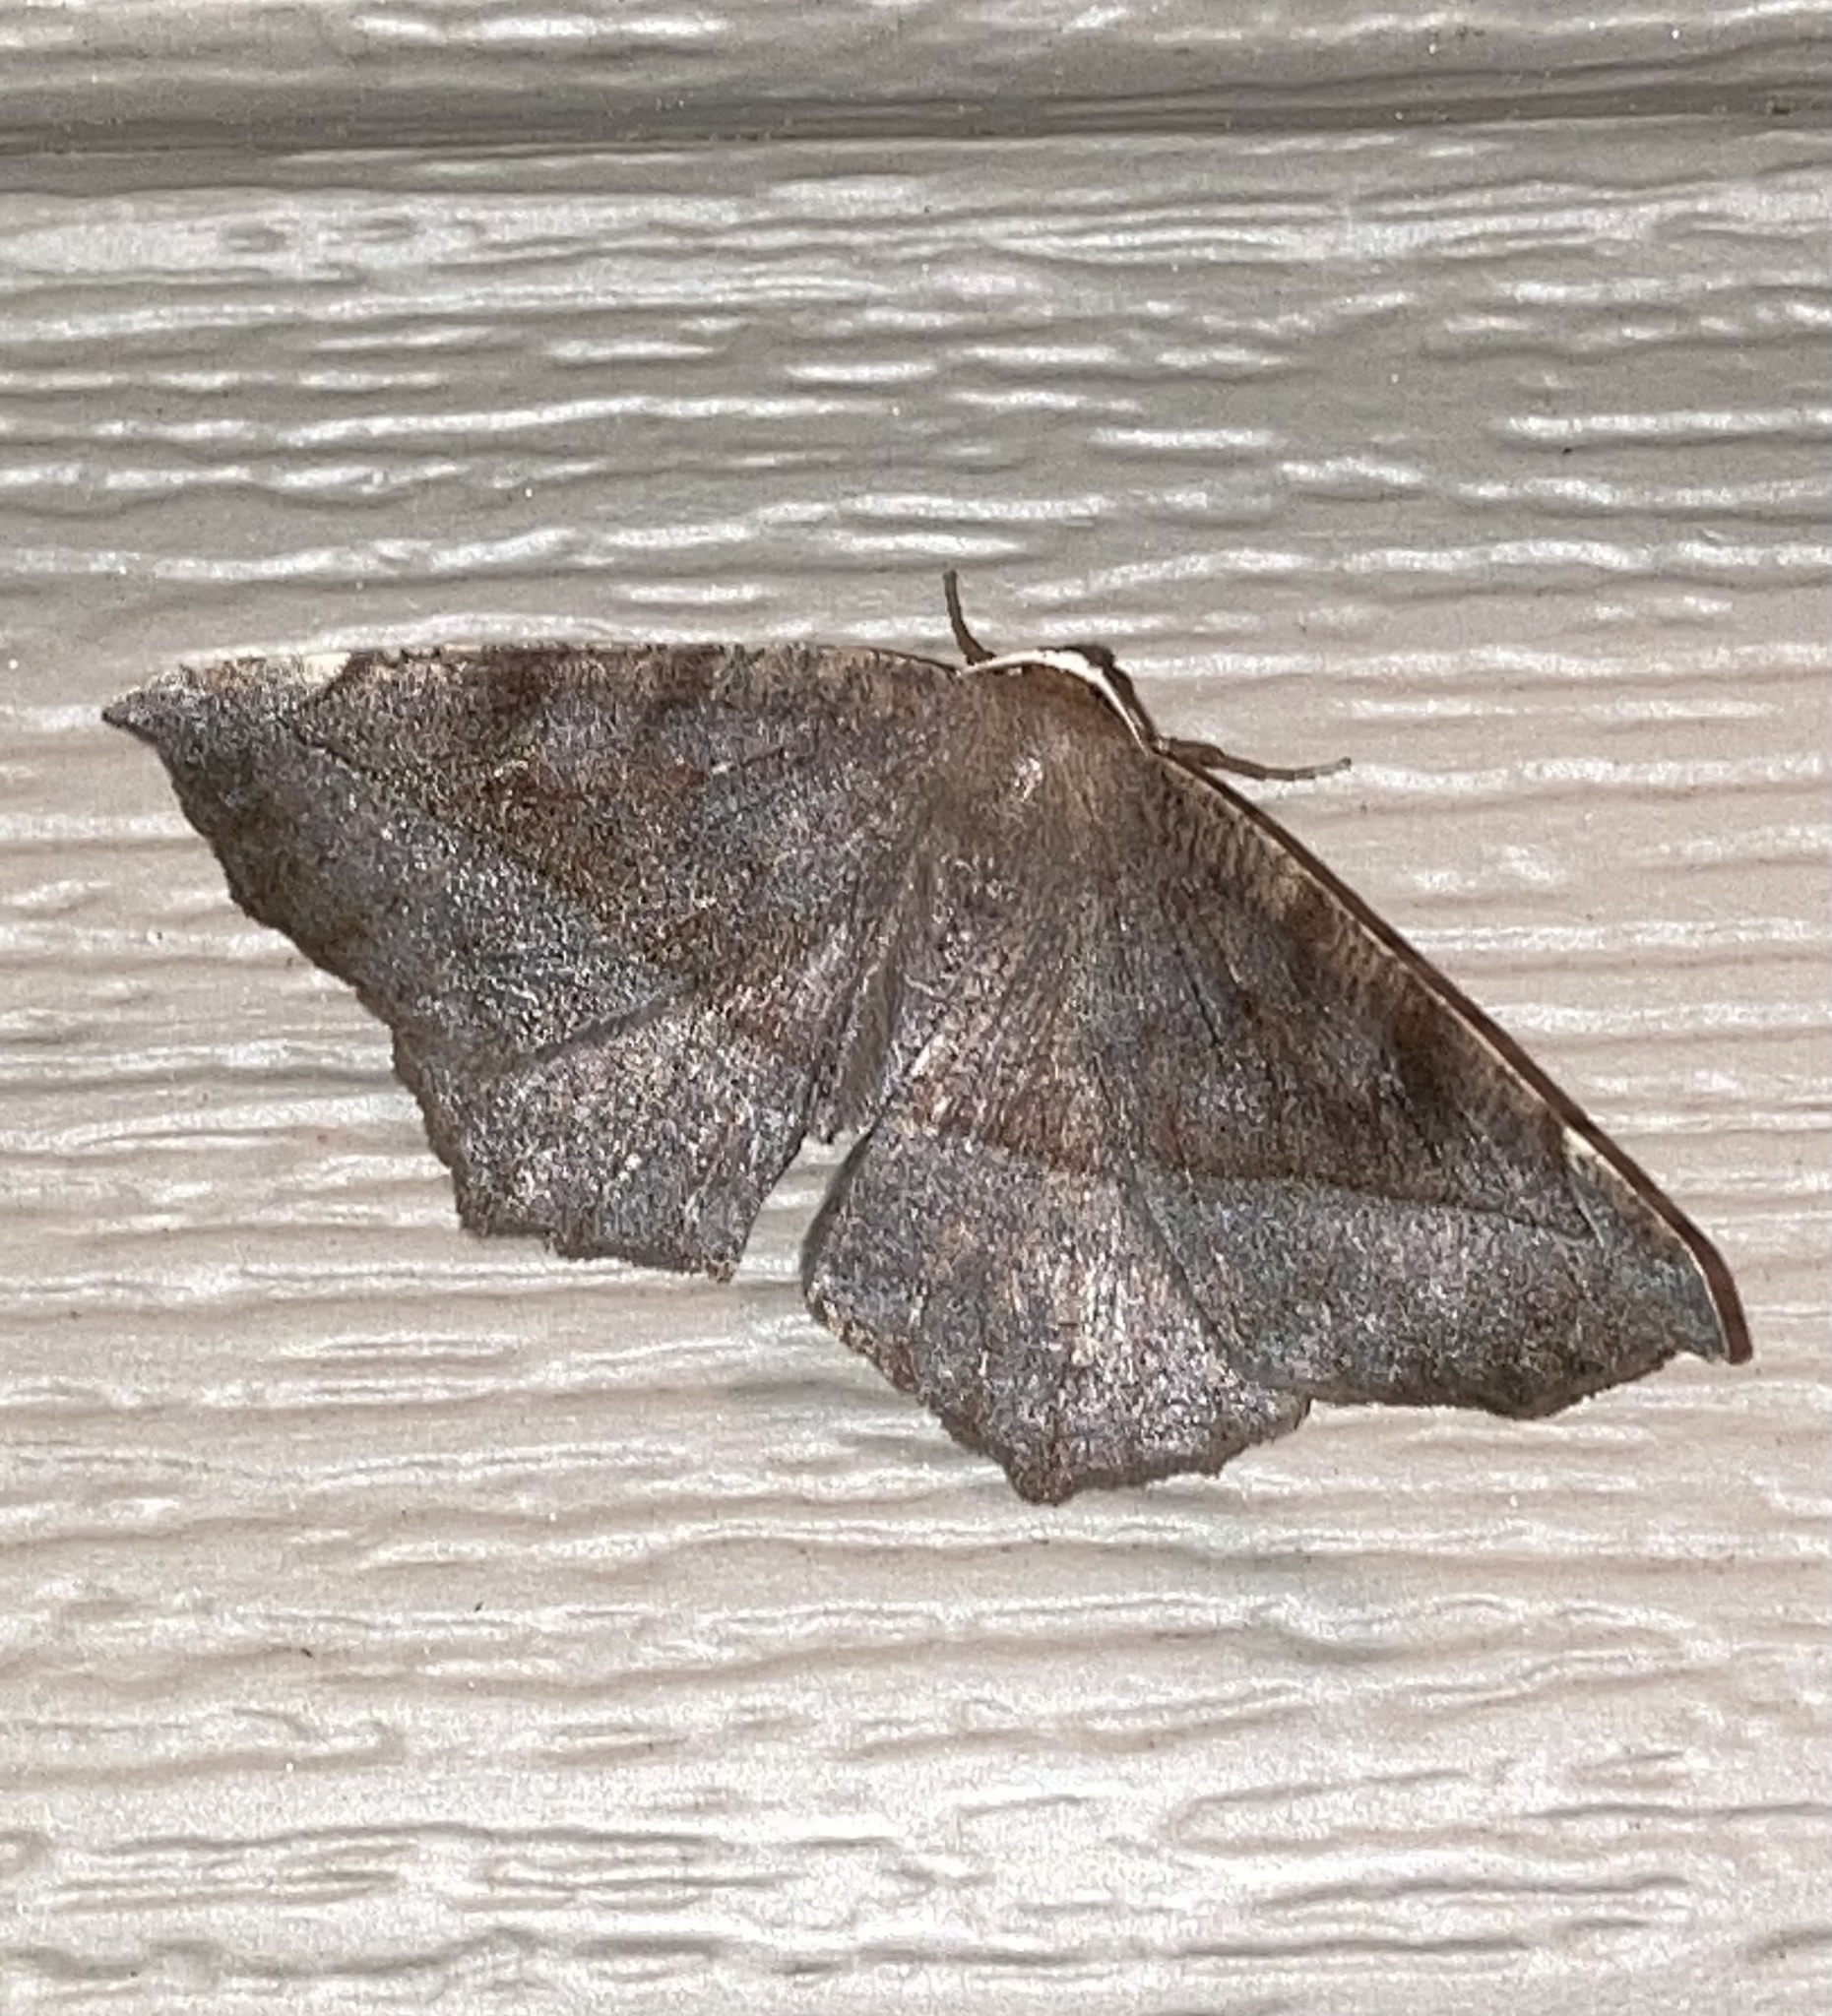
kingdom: Animalia
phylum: Arthropoda
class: Insecta
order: Lepidoptera
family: Geometridae
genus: Eutrapela
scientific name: Eutrapela clemataria
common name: Curved-toothed geometer
